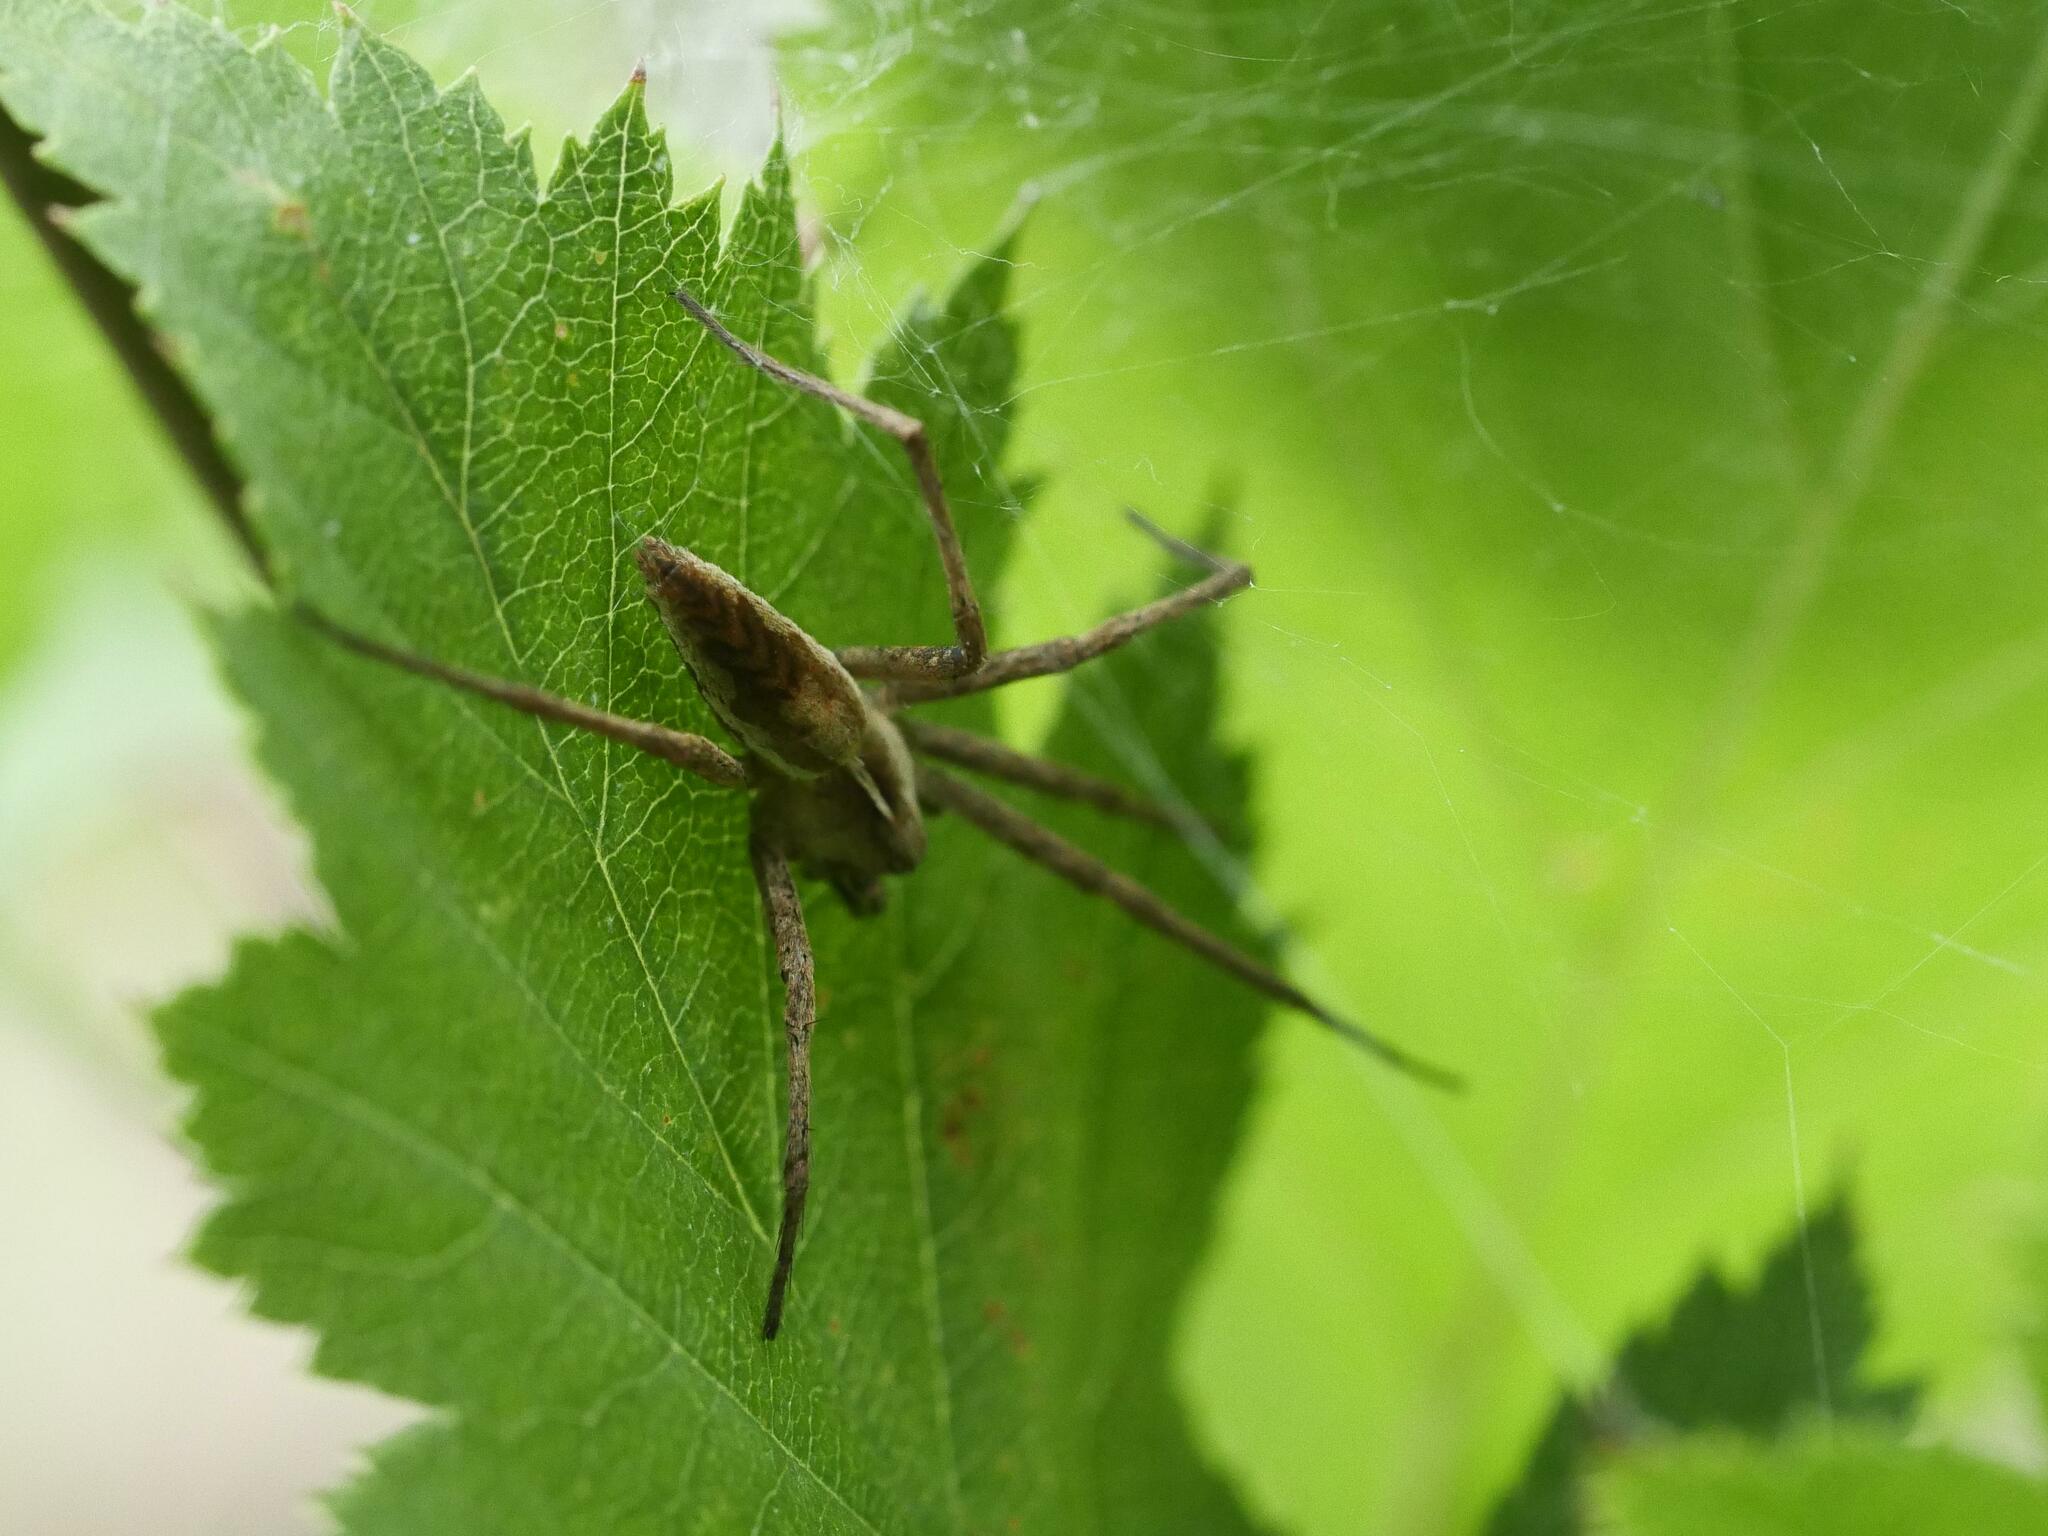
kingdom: Animalia
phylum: Arthropoda
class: Arachnida
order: Araneae
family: Pisauridae
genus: Pisaura
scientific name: Pisaura mirabilis
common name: Tent spider
